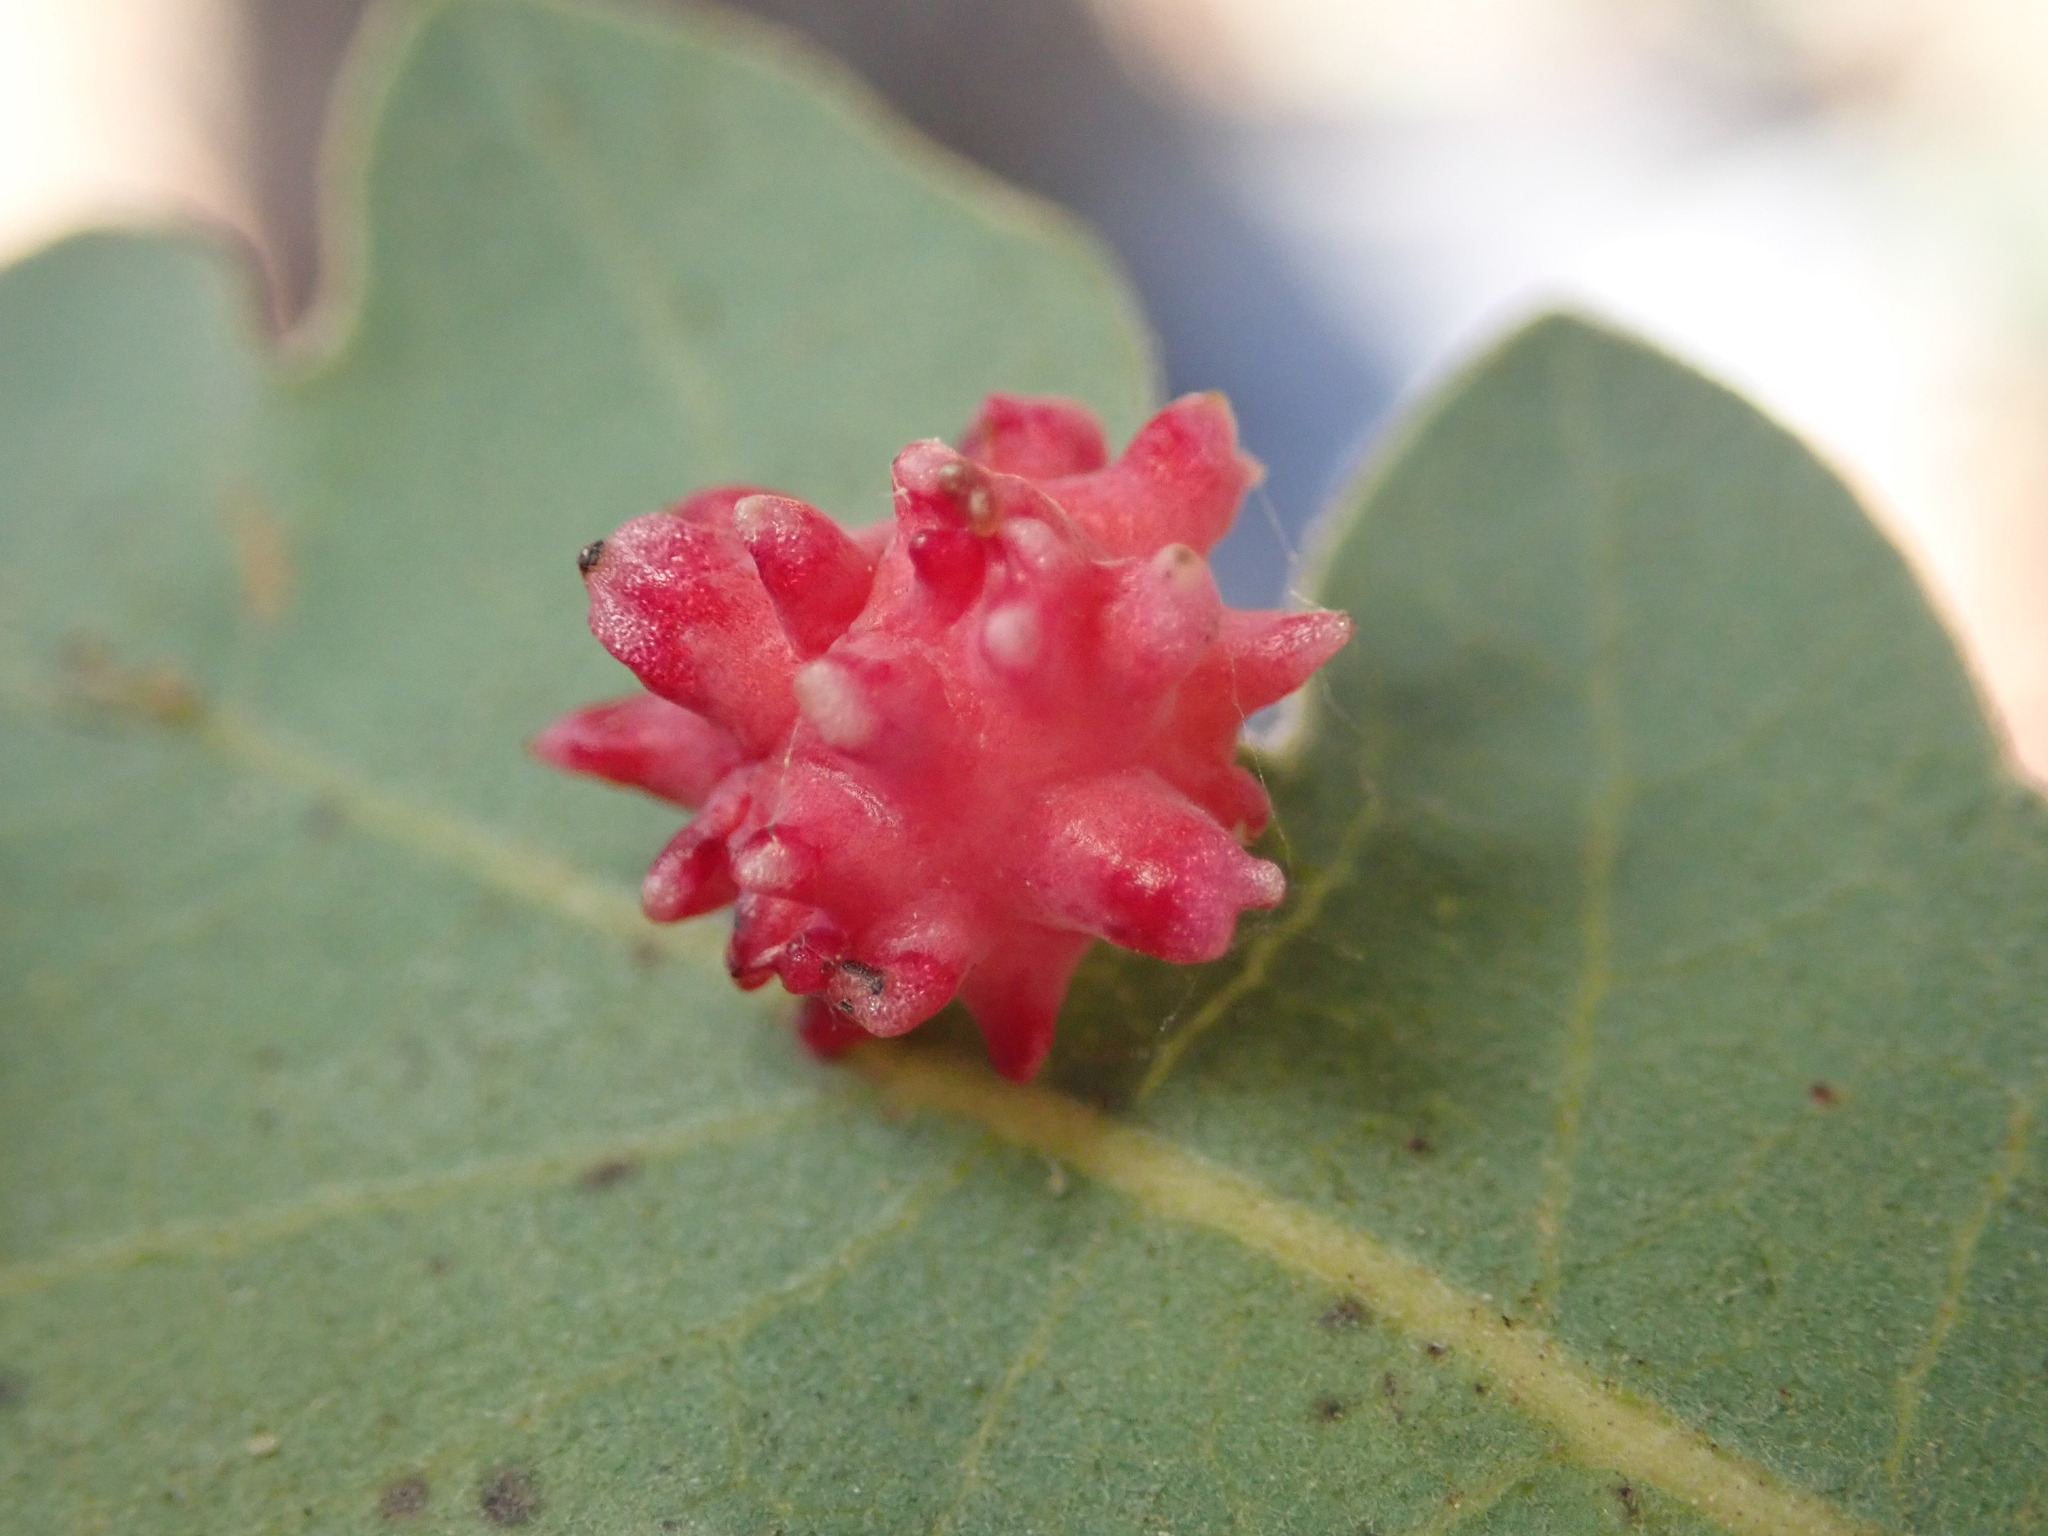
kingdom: Animalia
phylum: Arthropoda
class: Insecta
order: Hymenoptera
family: Cynipidae
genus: Cynips
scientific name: Cynips
